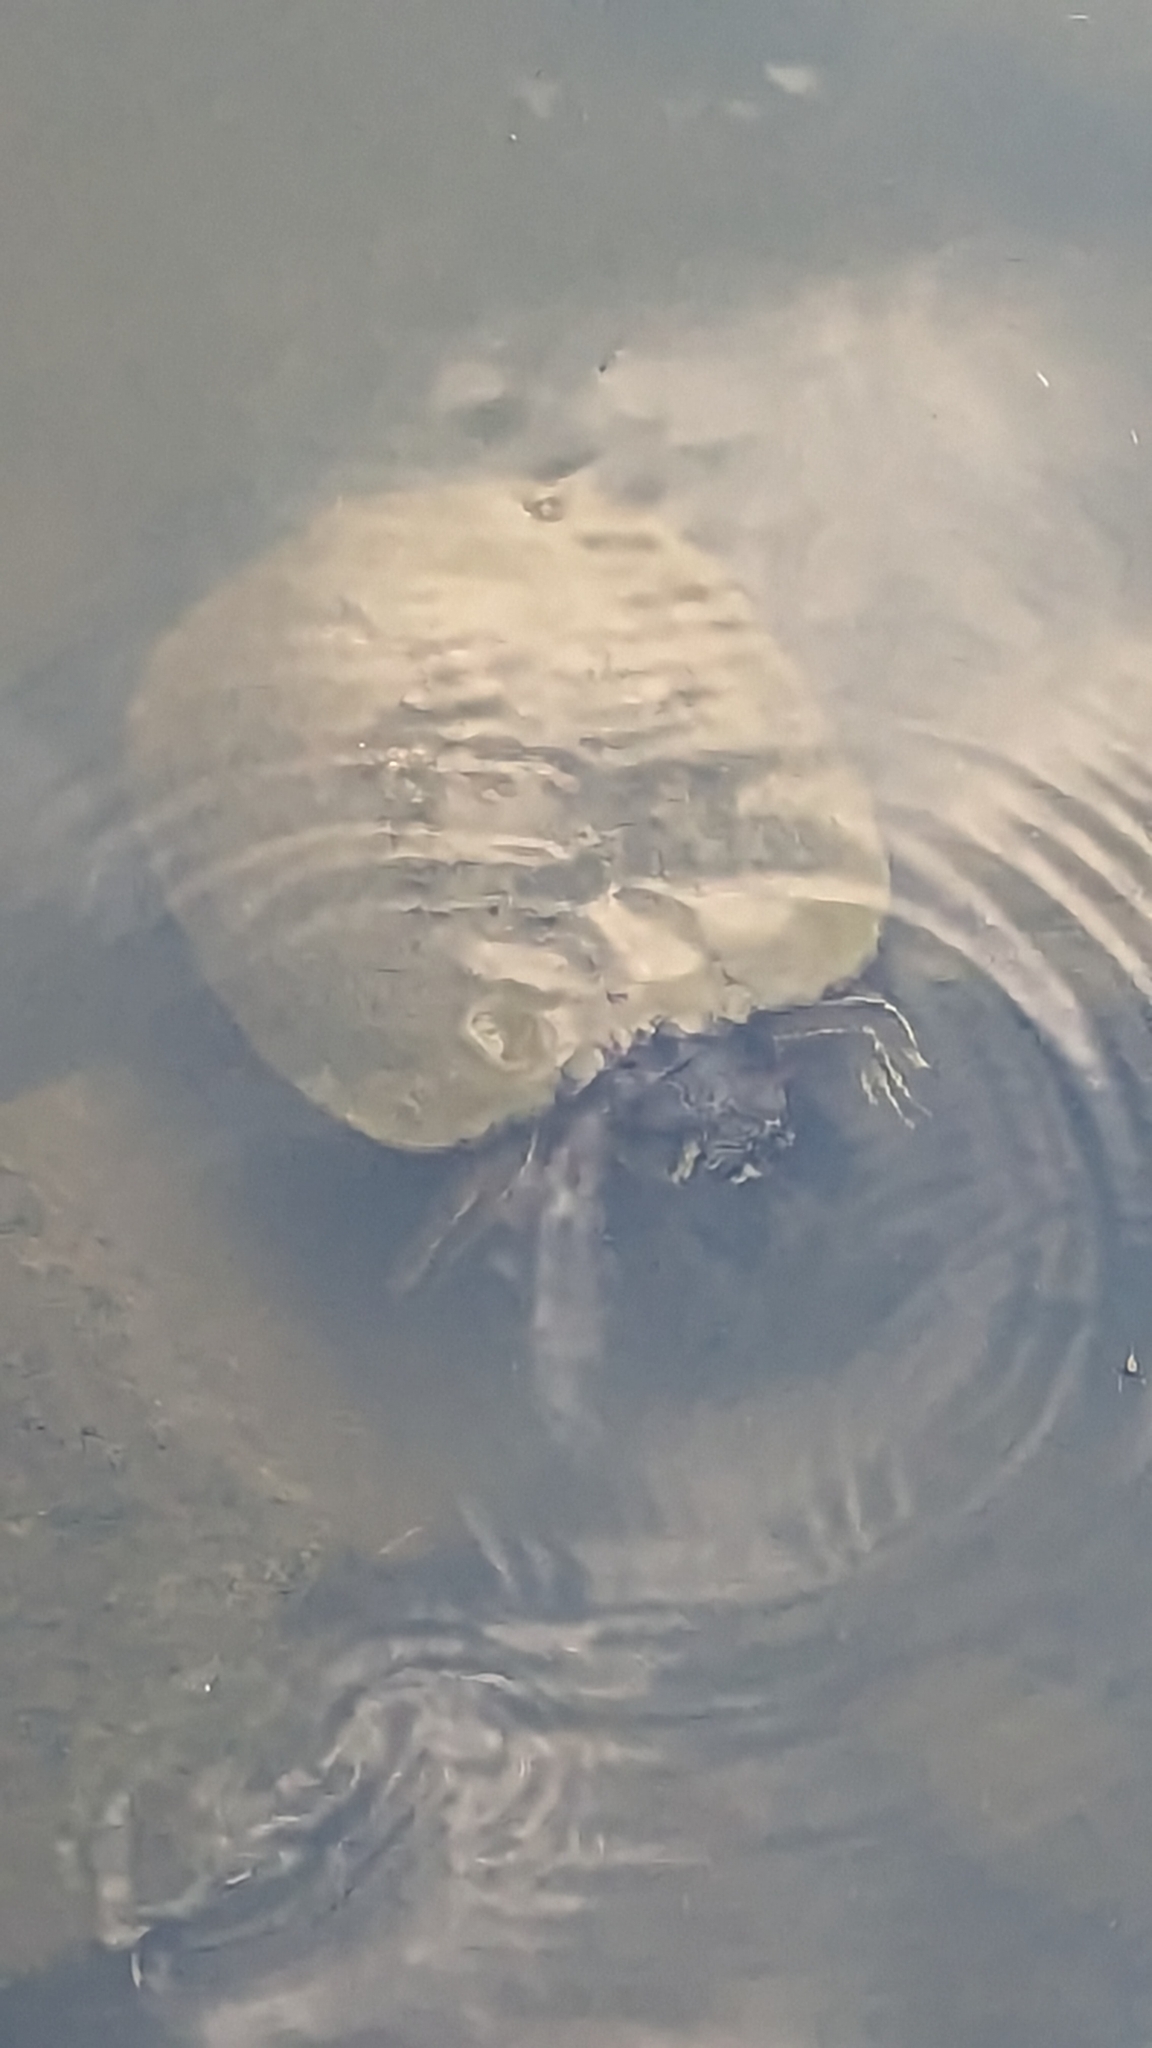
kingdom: Animalia
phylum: Chordata
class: Testudines
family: Emydidae
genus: Trachemys
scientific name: Trachemys scripta
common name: Slider
